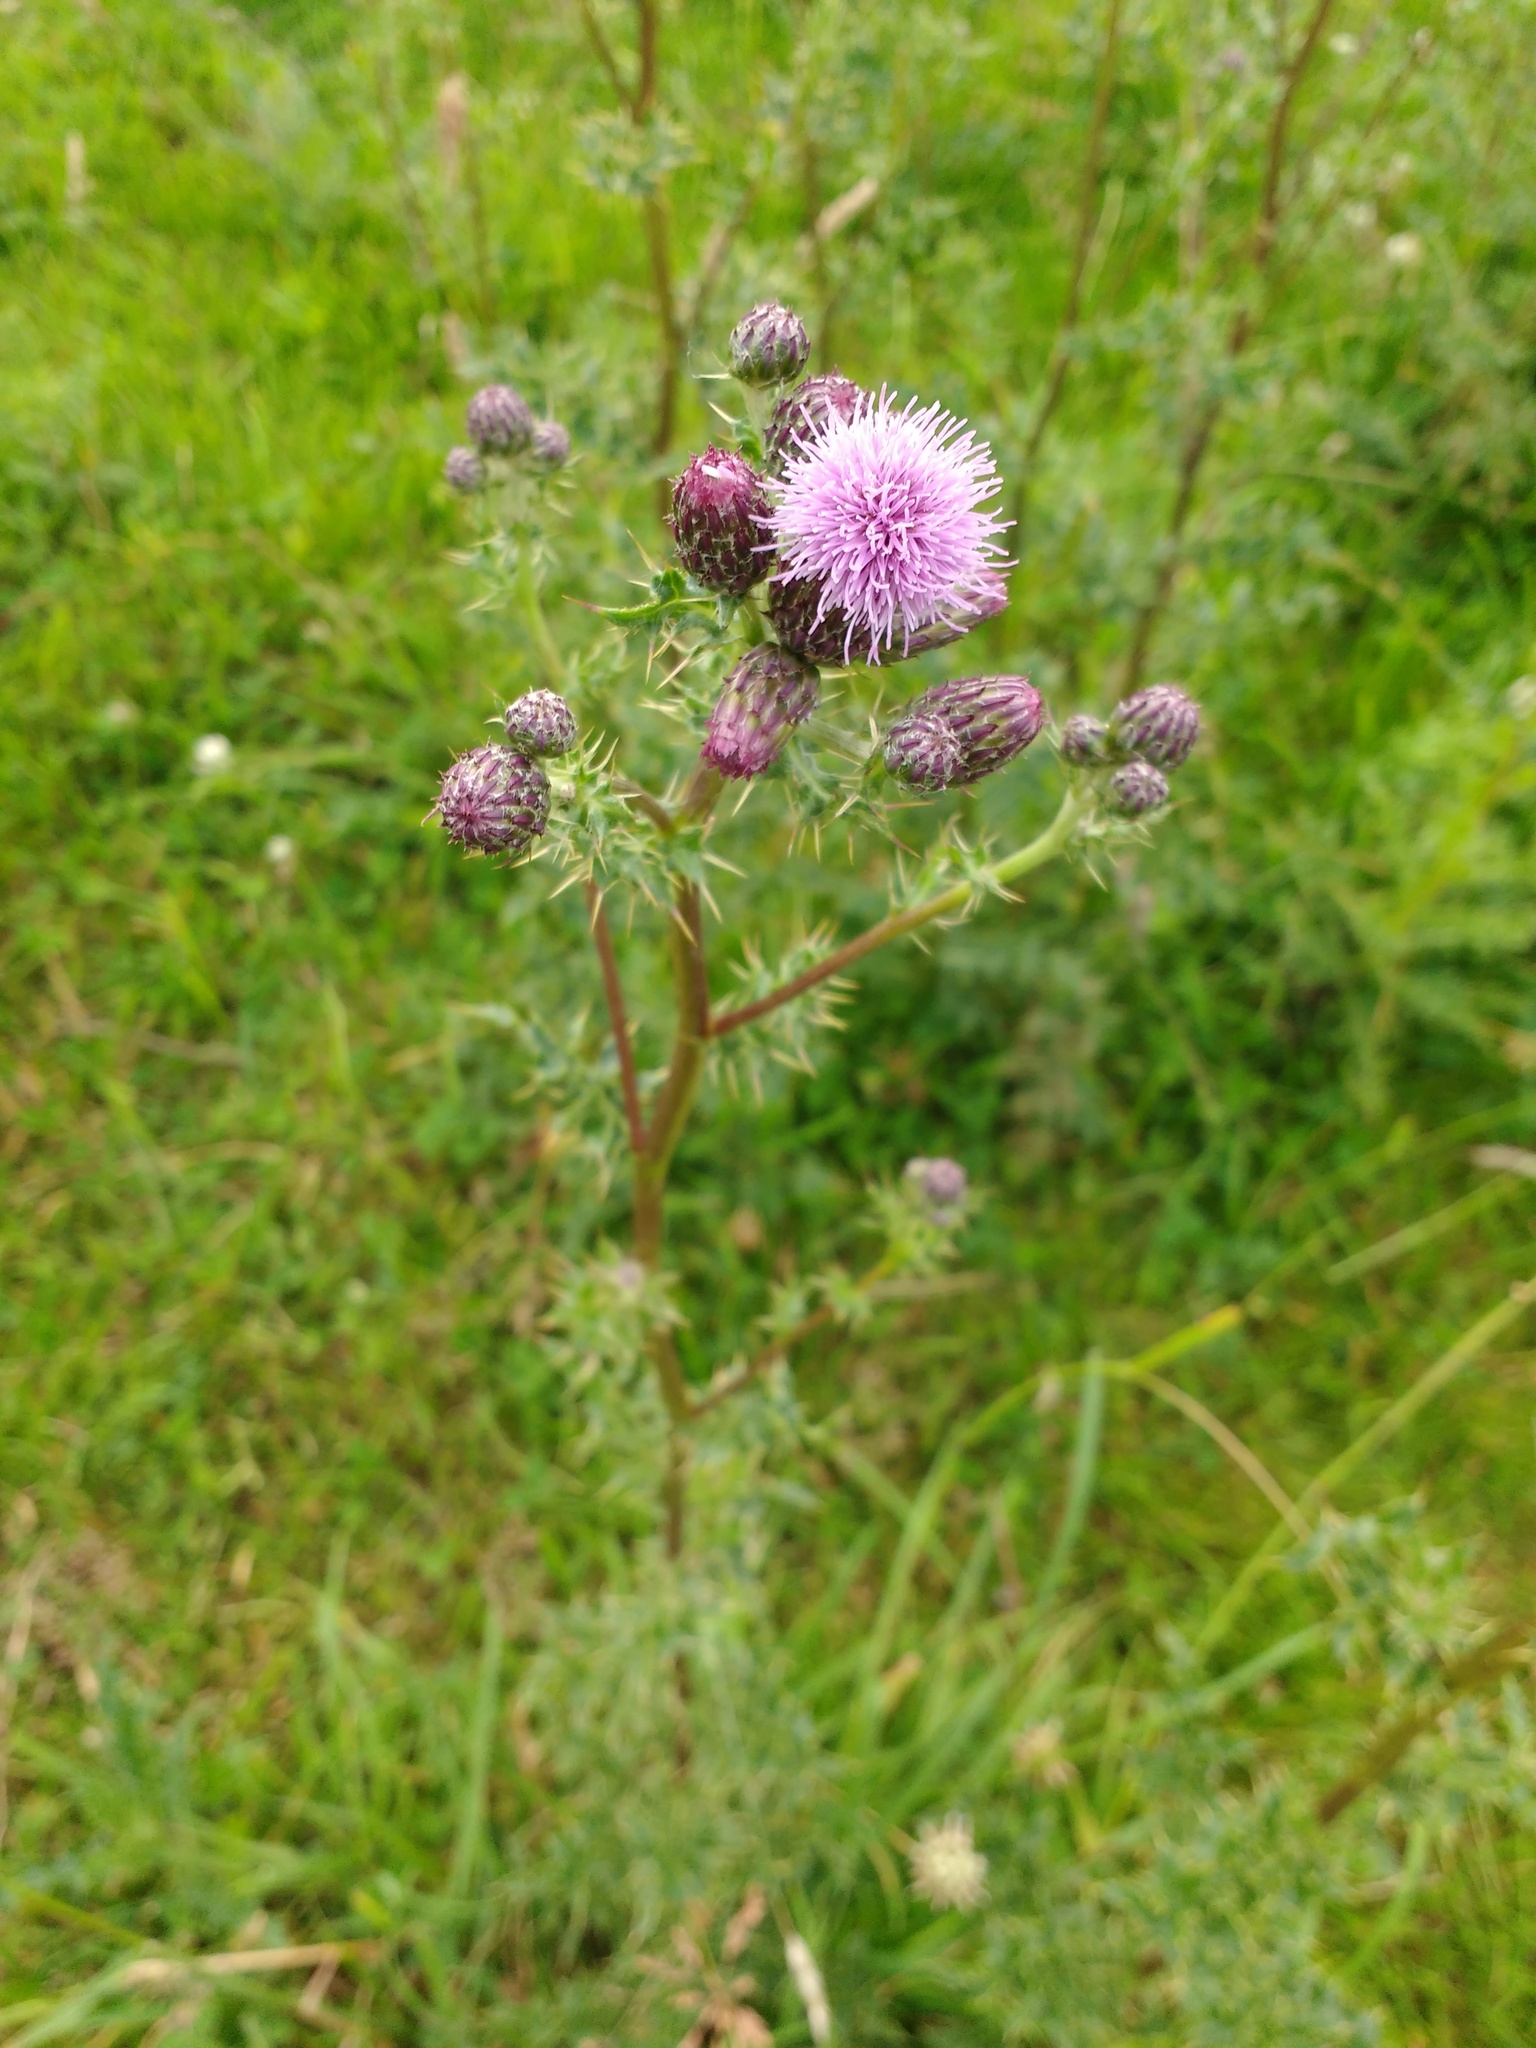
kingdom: Plantae
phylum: Tracheophyta
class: Magnoliopsida
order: Asterales
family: Asteraceae
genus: Cirsium
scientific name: Cirsium arvense
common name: Creeping thistle
